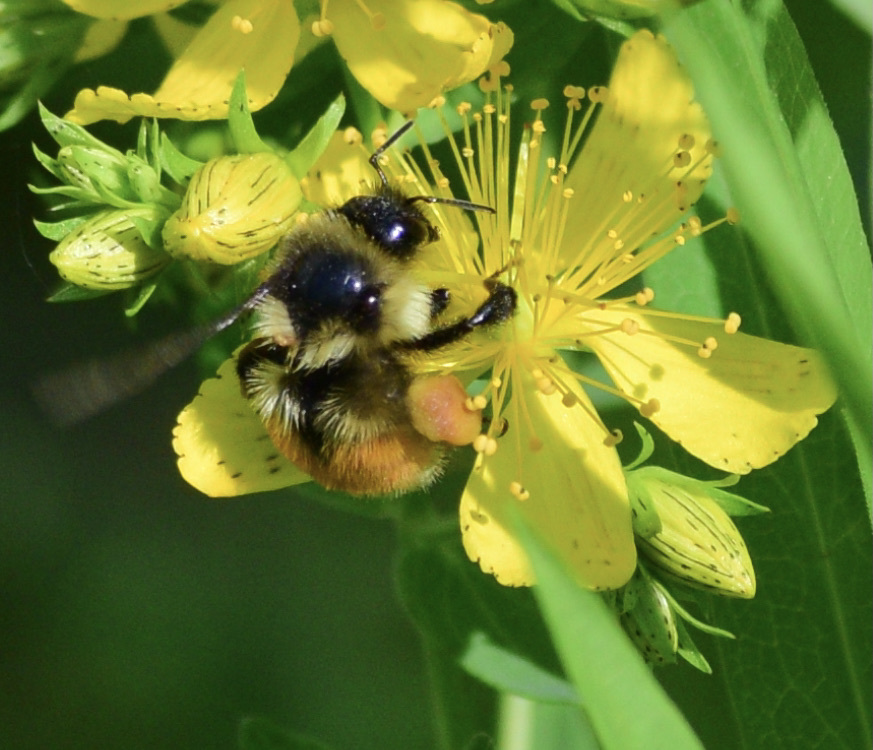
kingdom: Animalia
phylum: Arthropoda
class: Insecta
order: Hymenoptera
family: Apidae
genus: Bombus
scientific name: Bombus ternarius
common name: Tri-colored bumble bee
